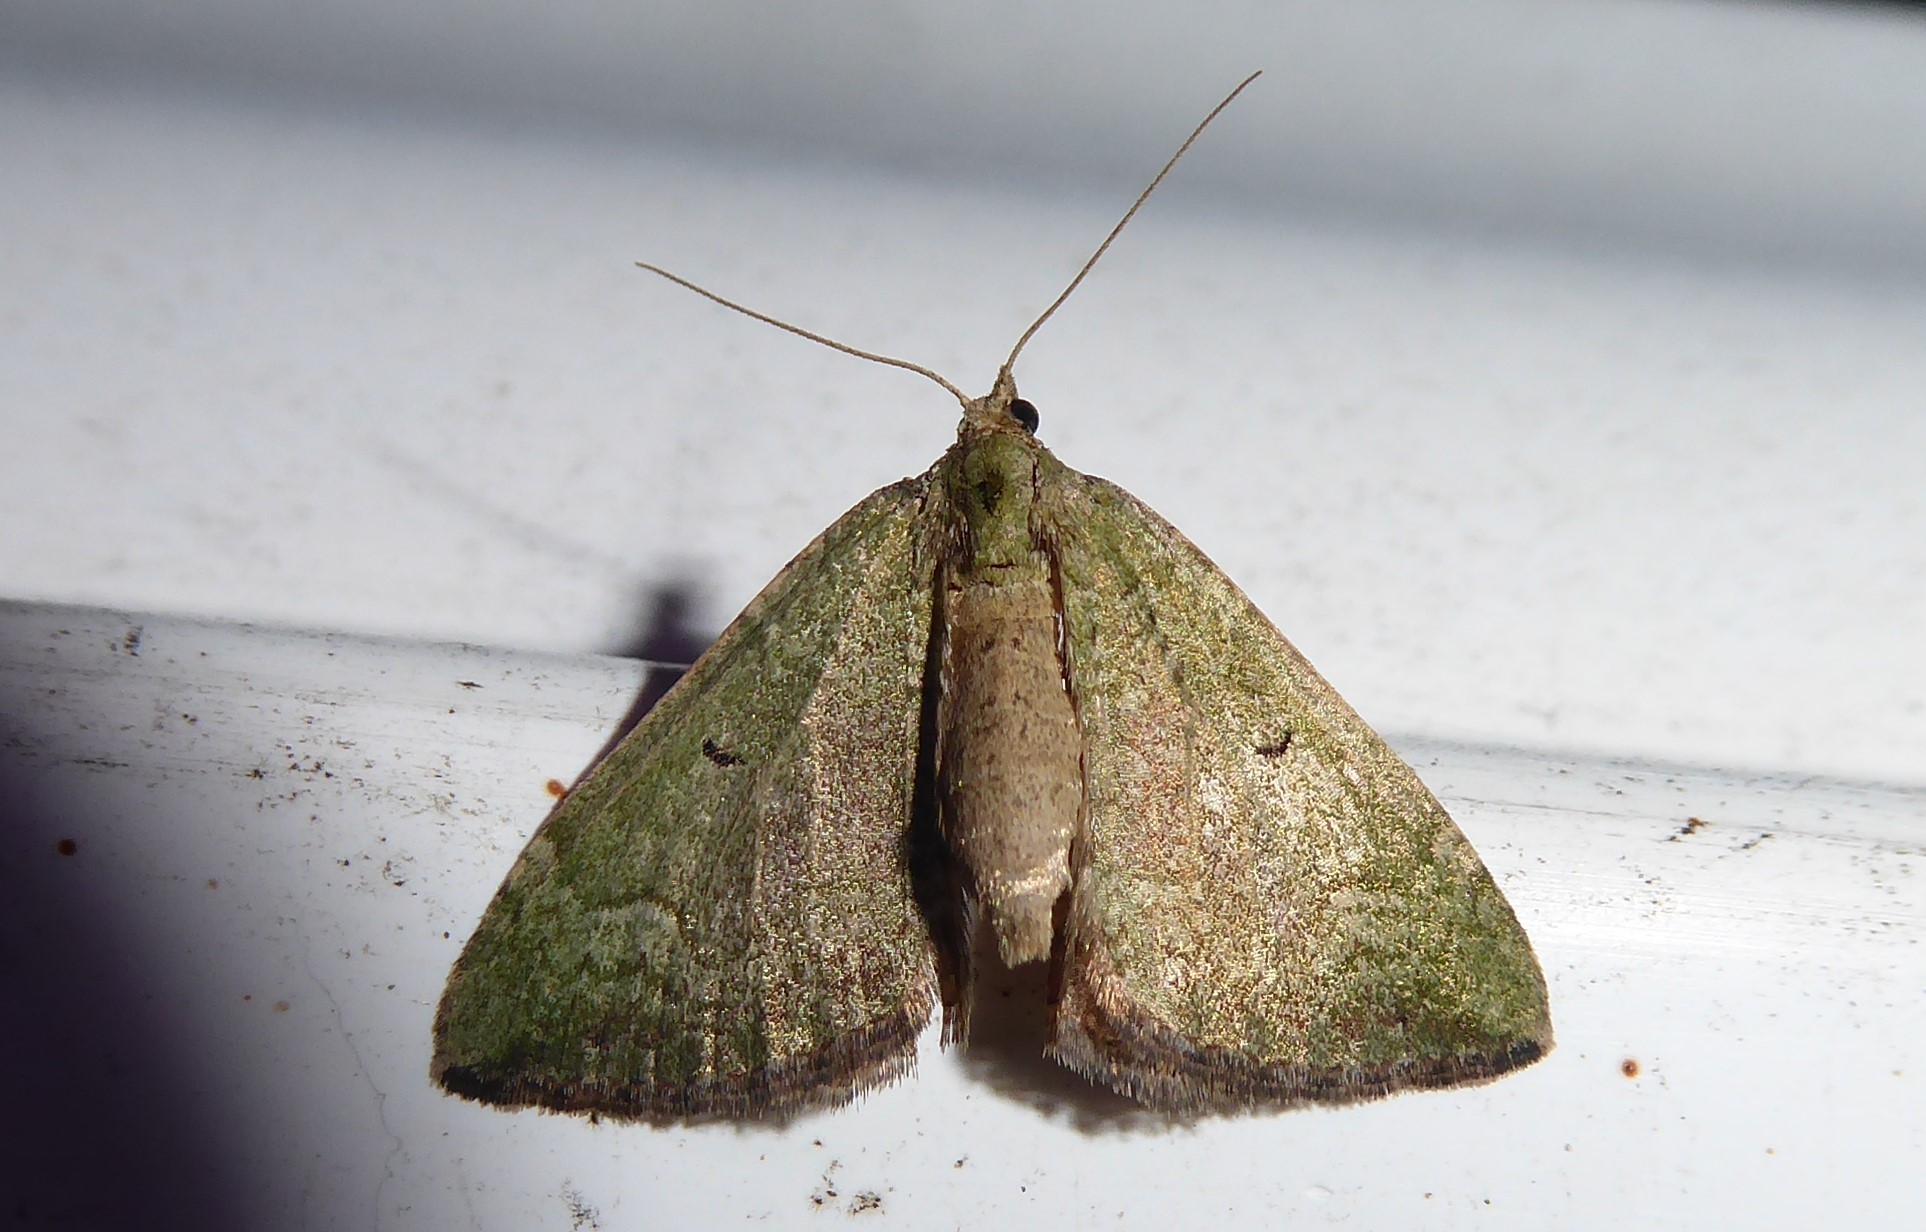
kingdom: Animalia
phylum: Arthropoda
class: Insecta
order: Lepidoptera
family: Geometridae
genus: Epyaxa
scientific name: Epyaxa rosearia
